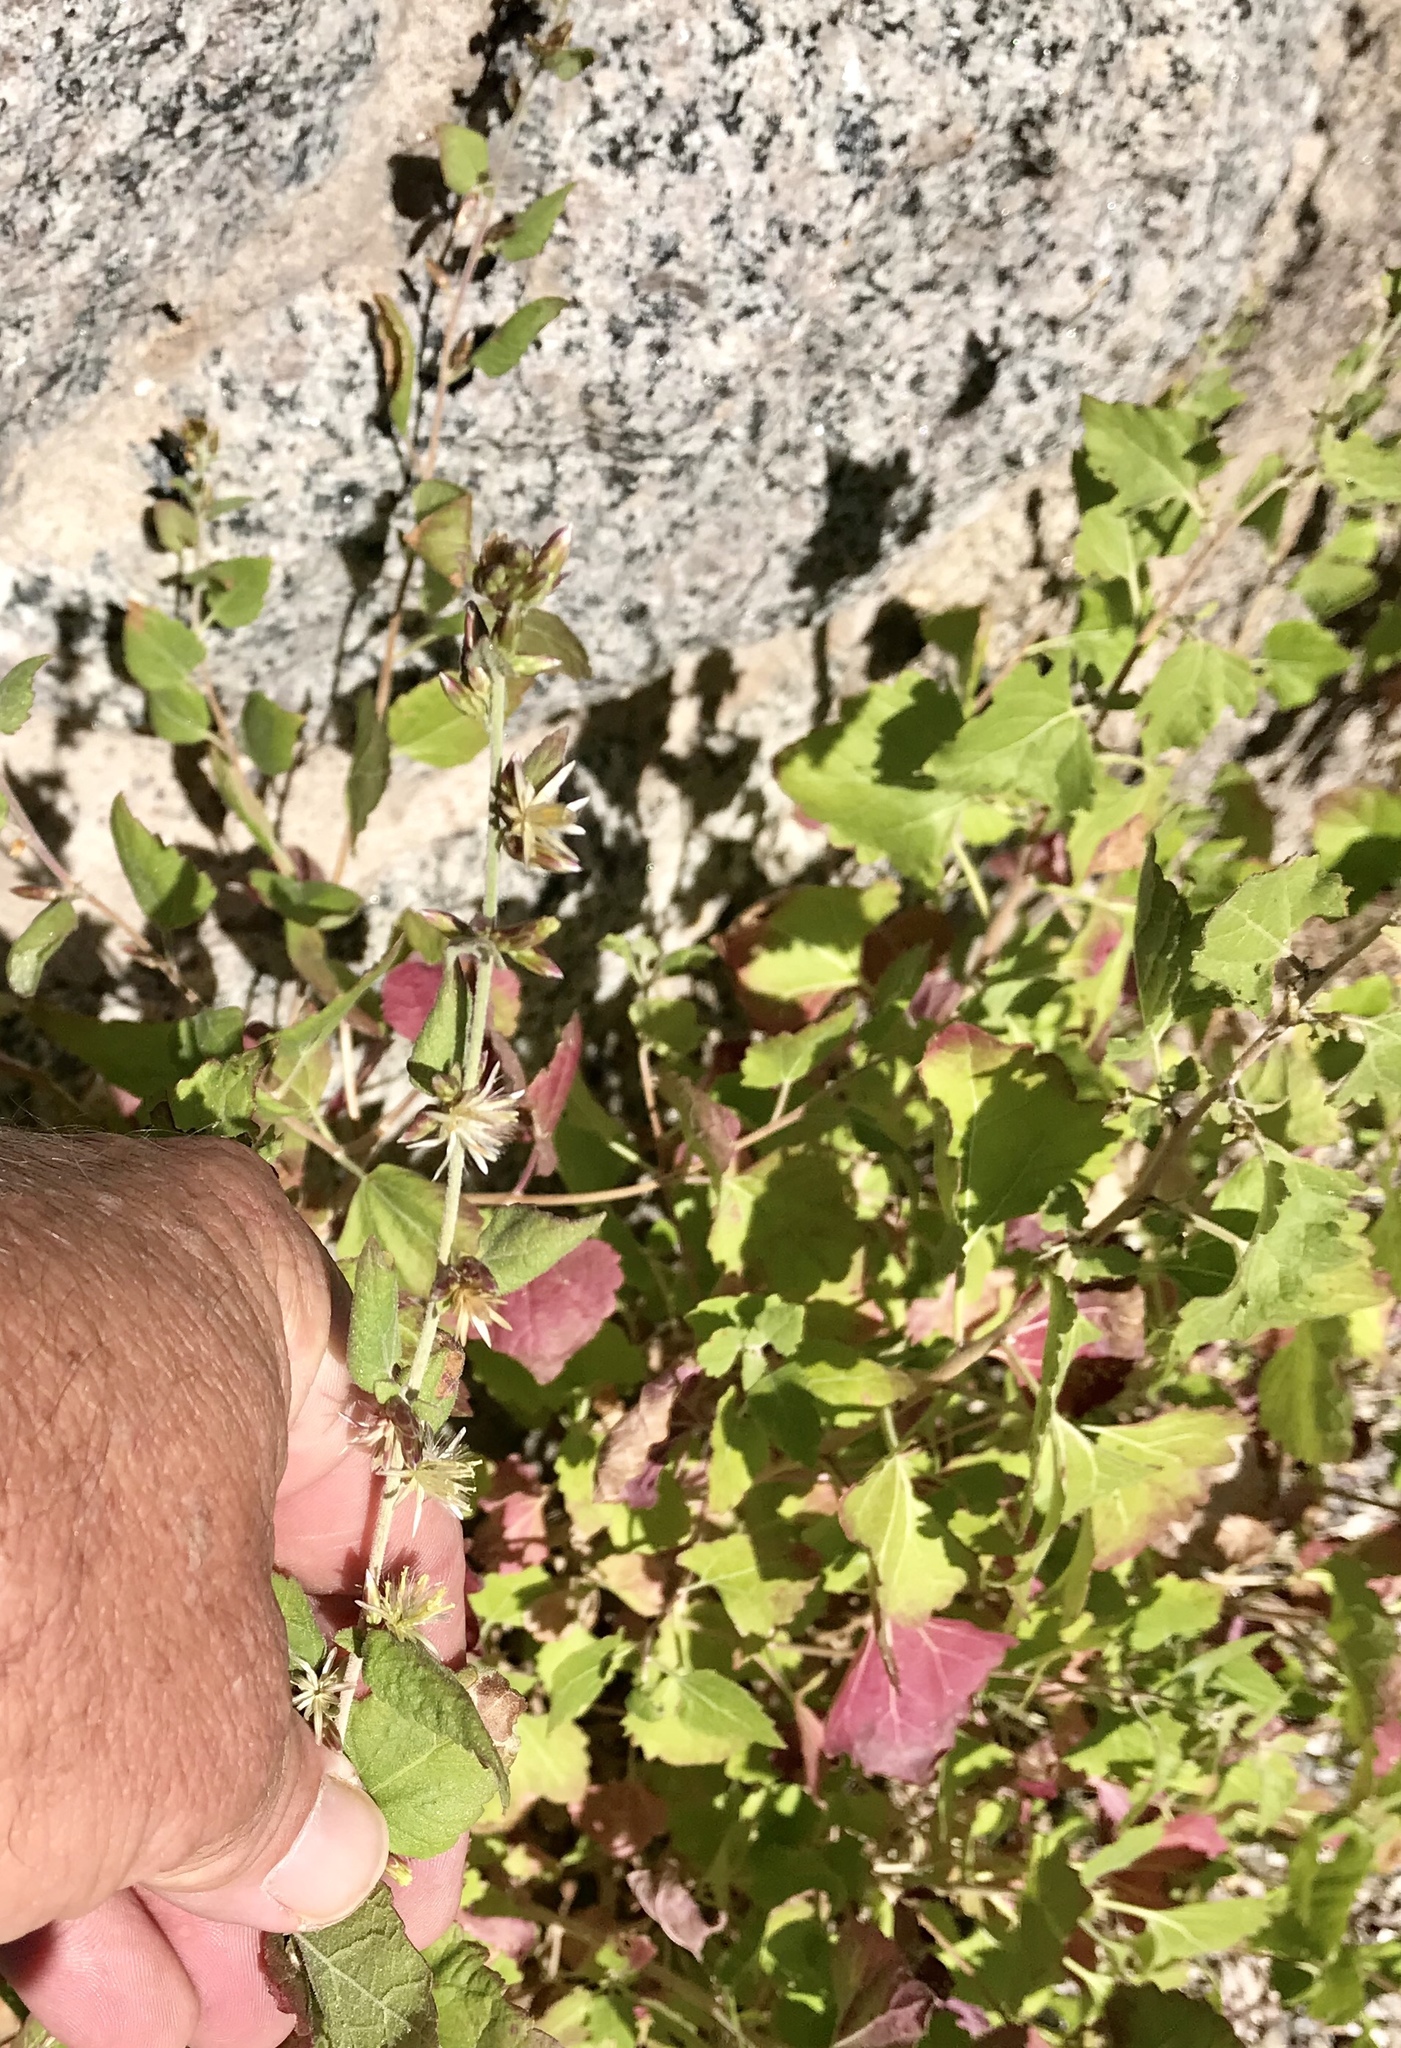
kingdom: Plantae
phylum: Tracheophyta
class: Magnoliopsida
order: Asterales
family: Asteraceae
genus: Brickellia
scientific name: Brickellia californica
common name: California brickellbush
